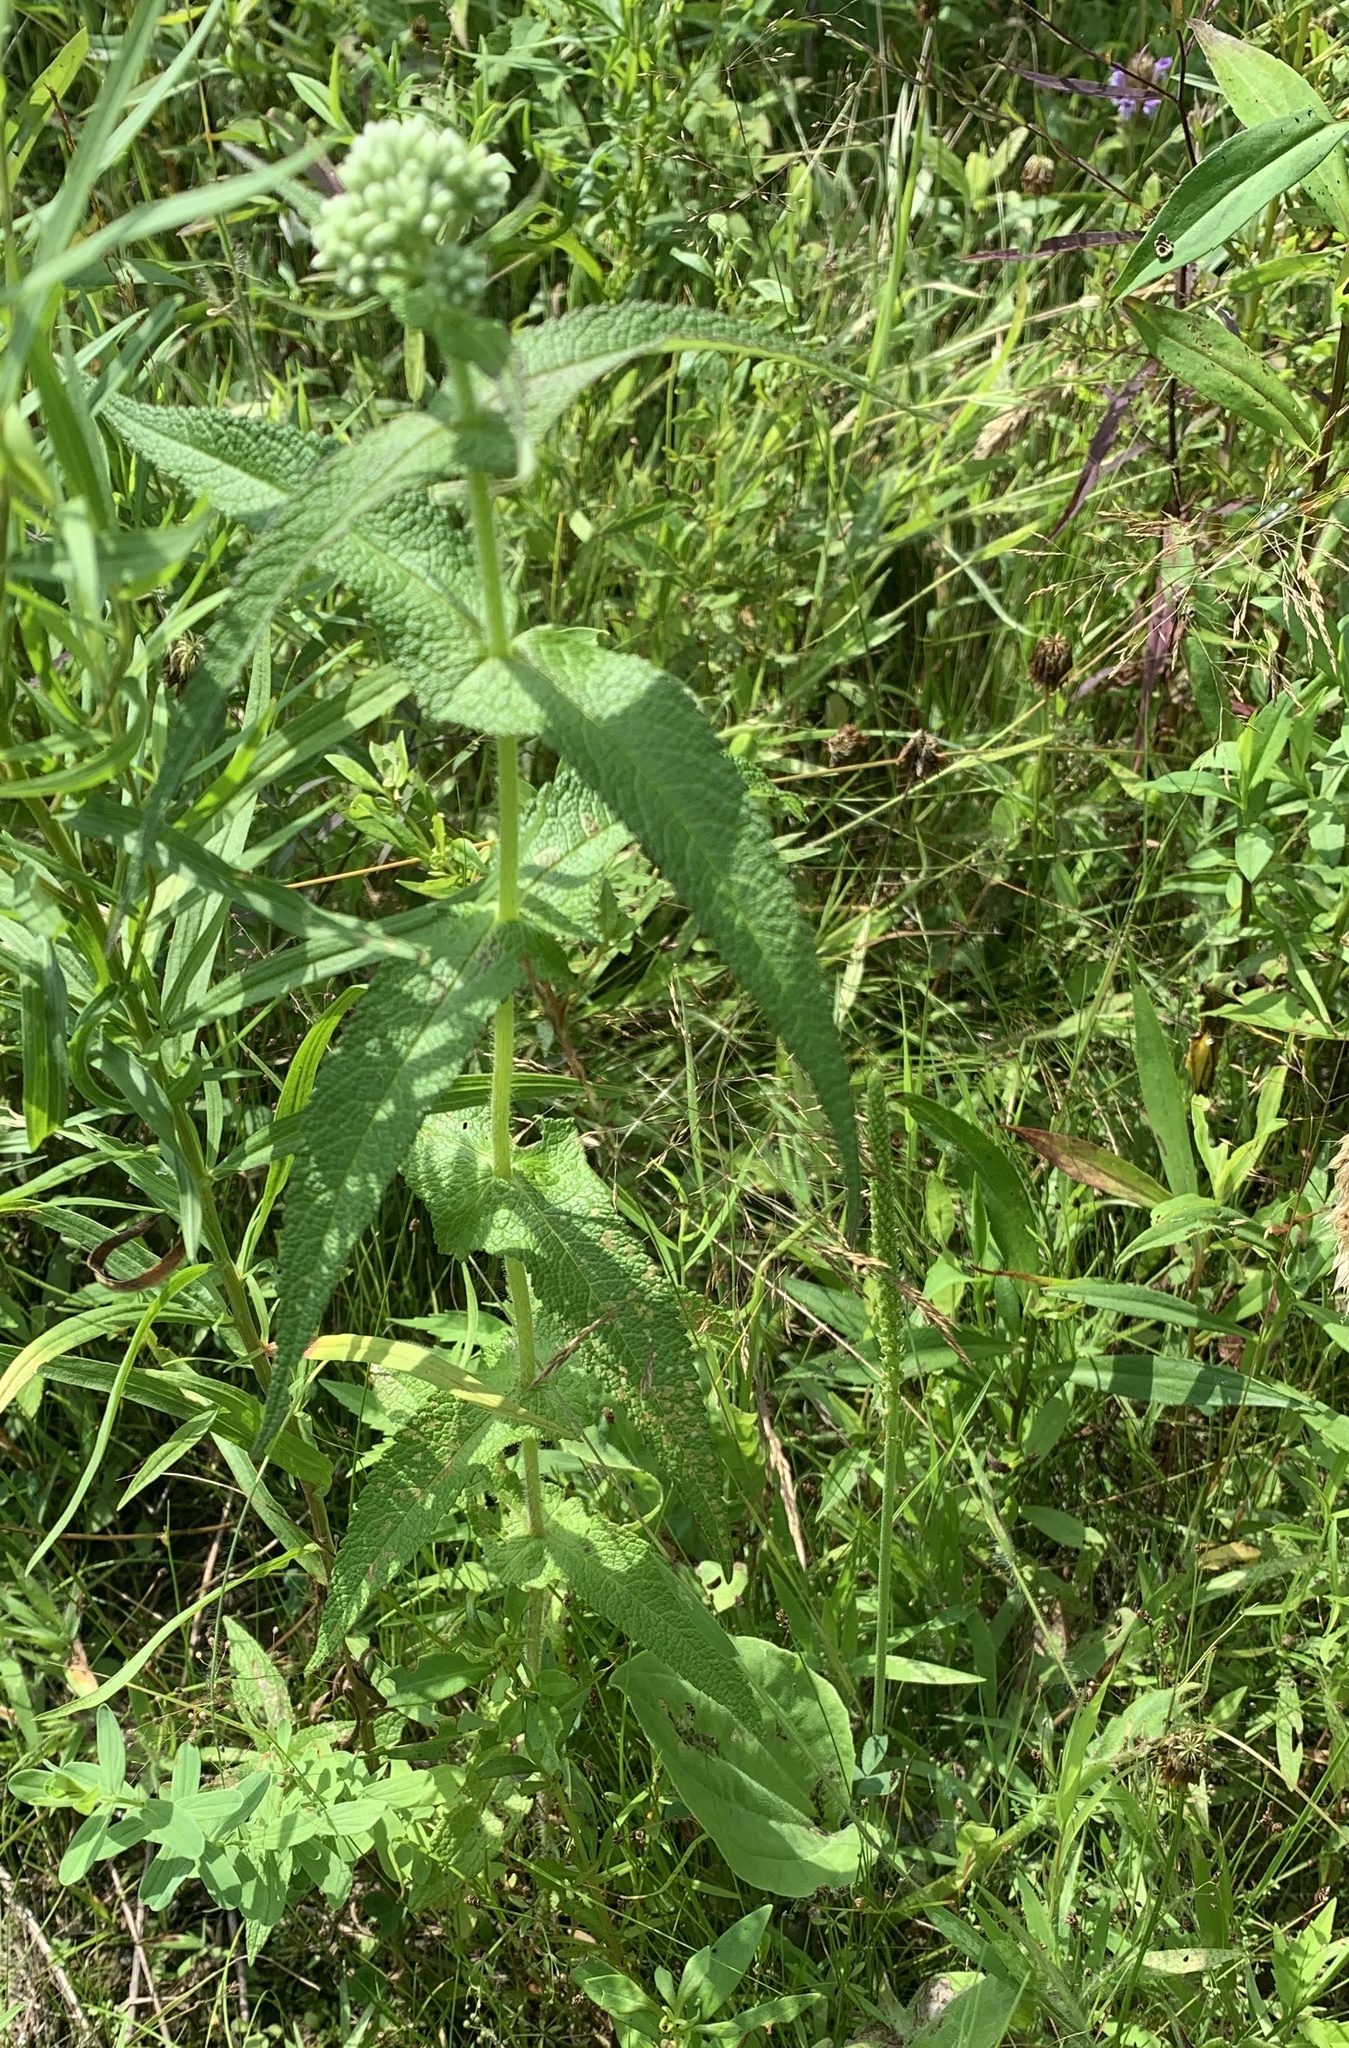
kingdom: Plantae
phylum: Tracheophyta
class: Magnoliopsida
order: Asterales
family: Asteraceae
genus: Eupatorium
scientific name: Eupatorium perfoliatum
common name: Boneset
